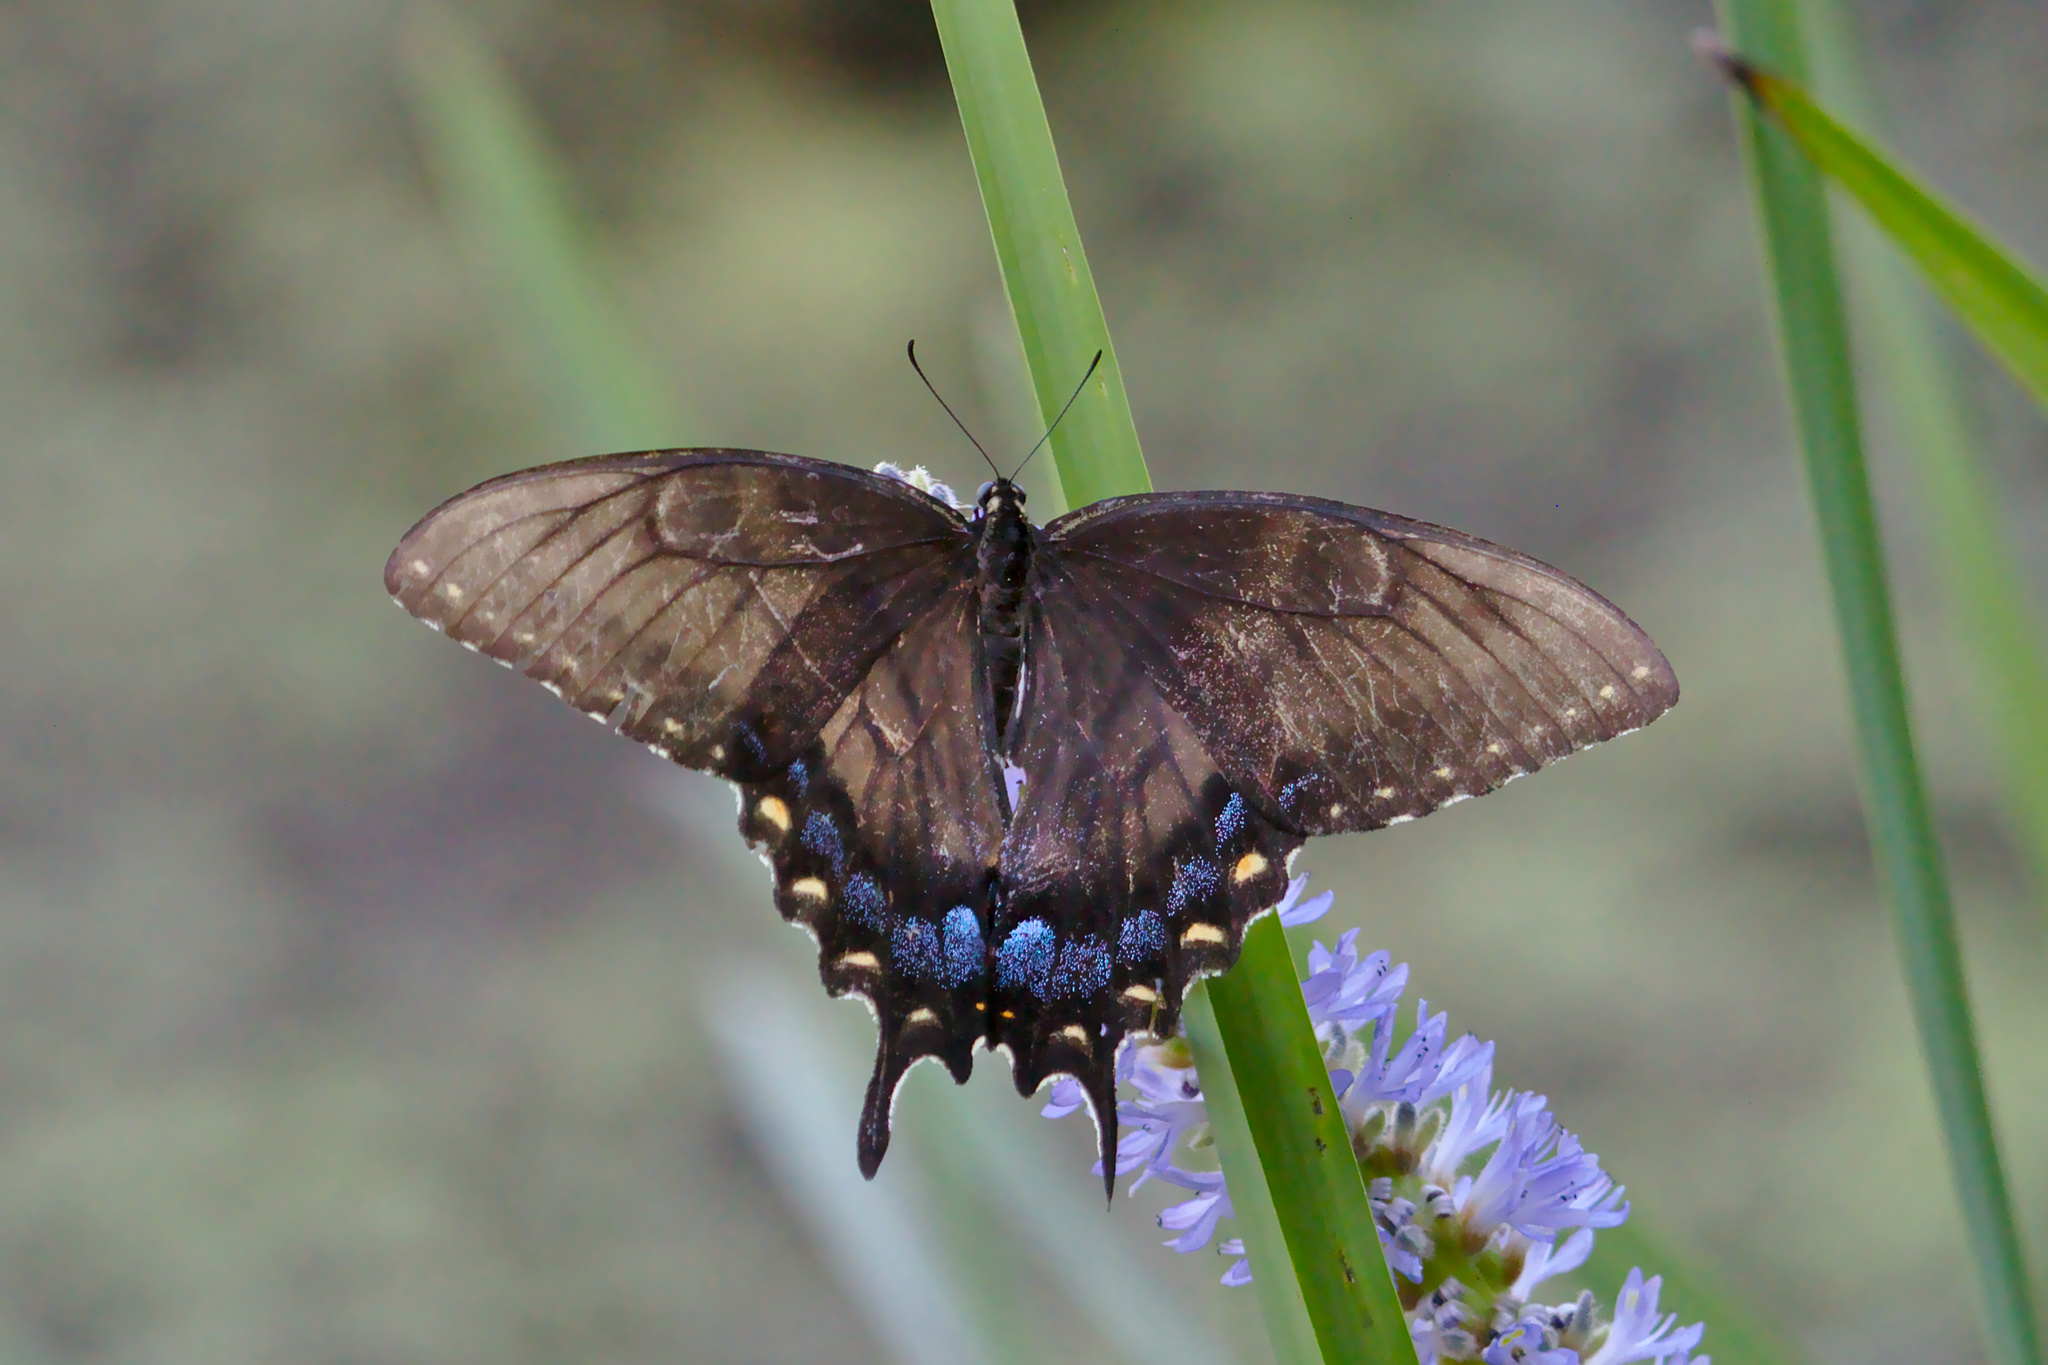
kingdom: Animalia
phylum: Arthropoda
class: Insecta
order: Lepidoptera
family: Papilionidae
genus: Papilio
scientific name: Papilio glaucus
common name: Tiger swallowtail
